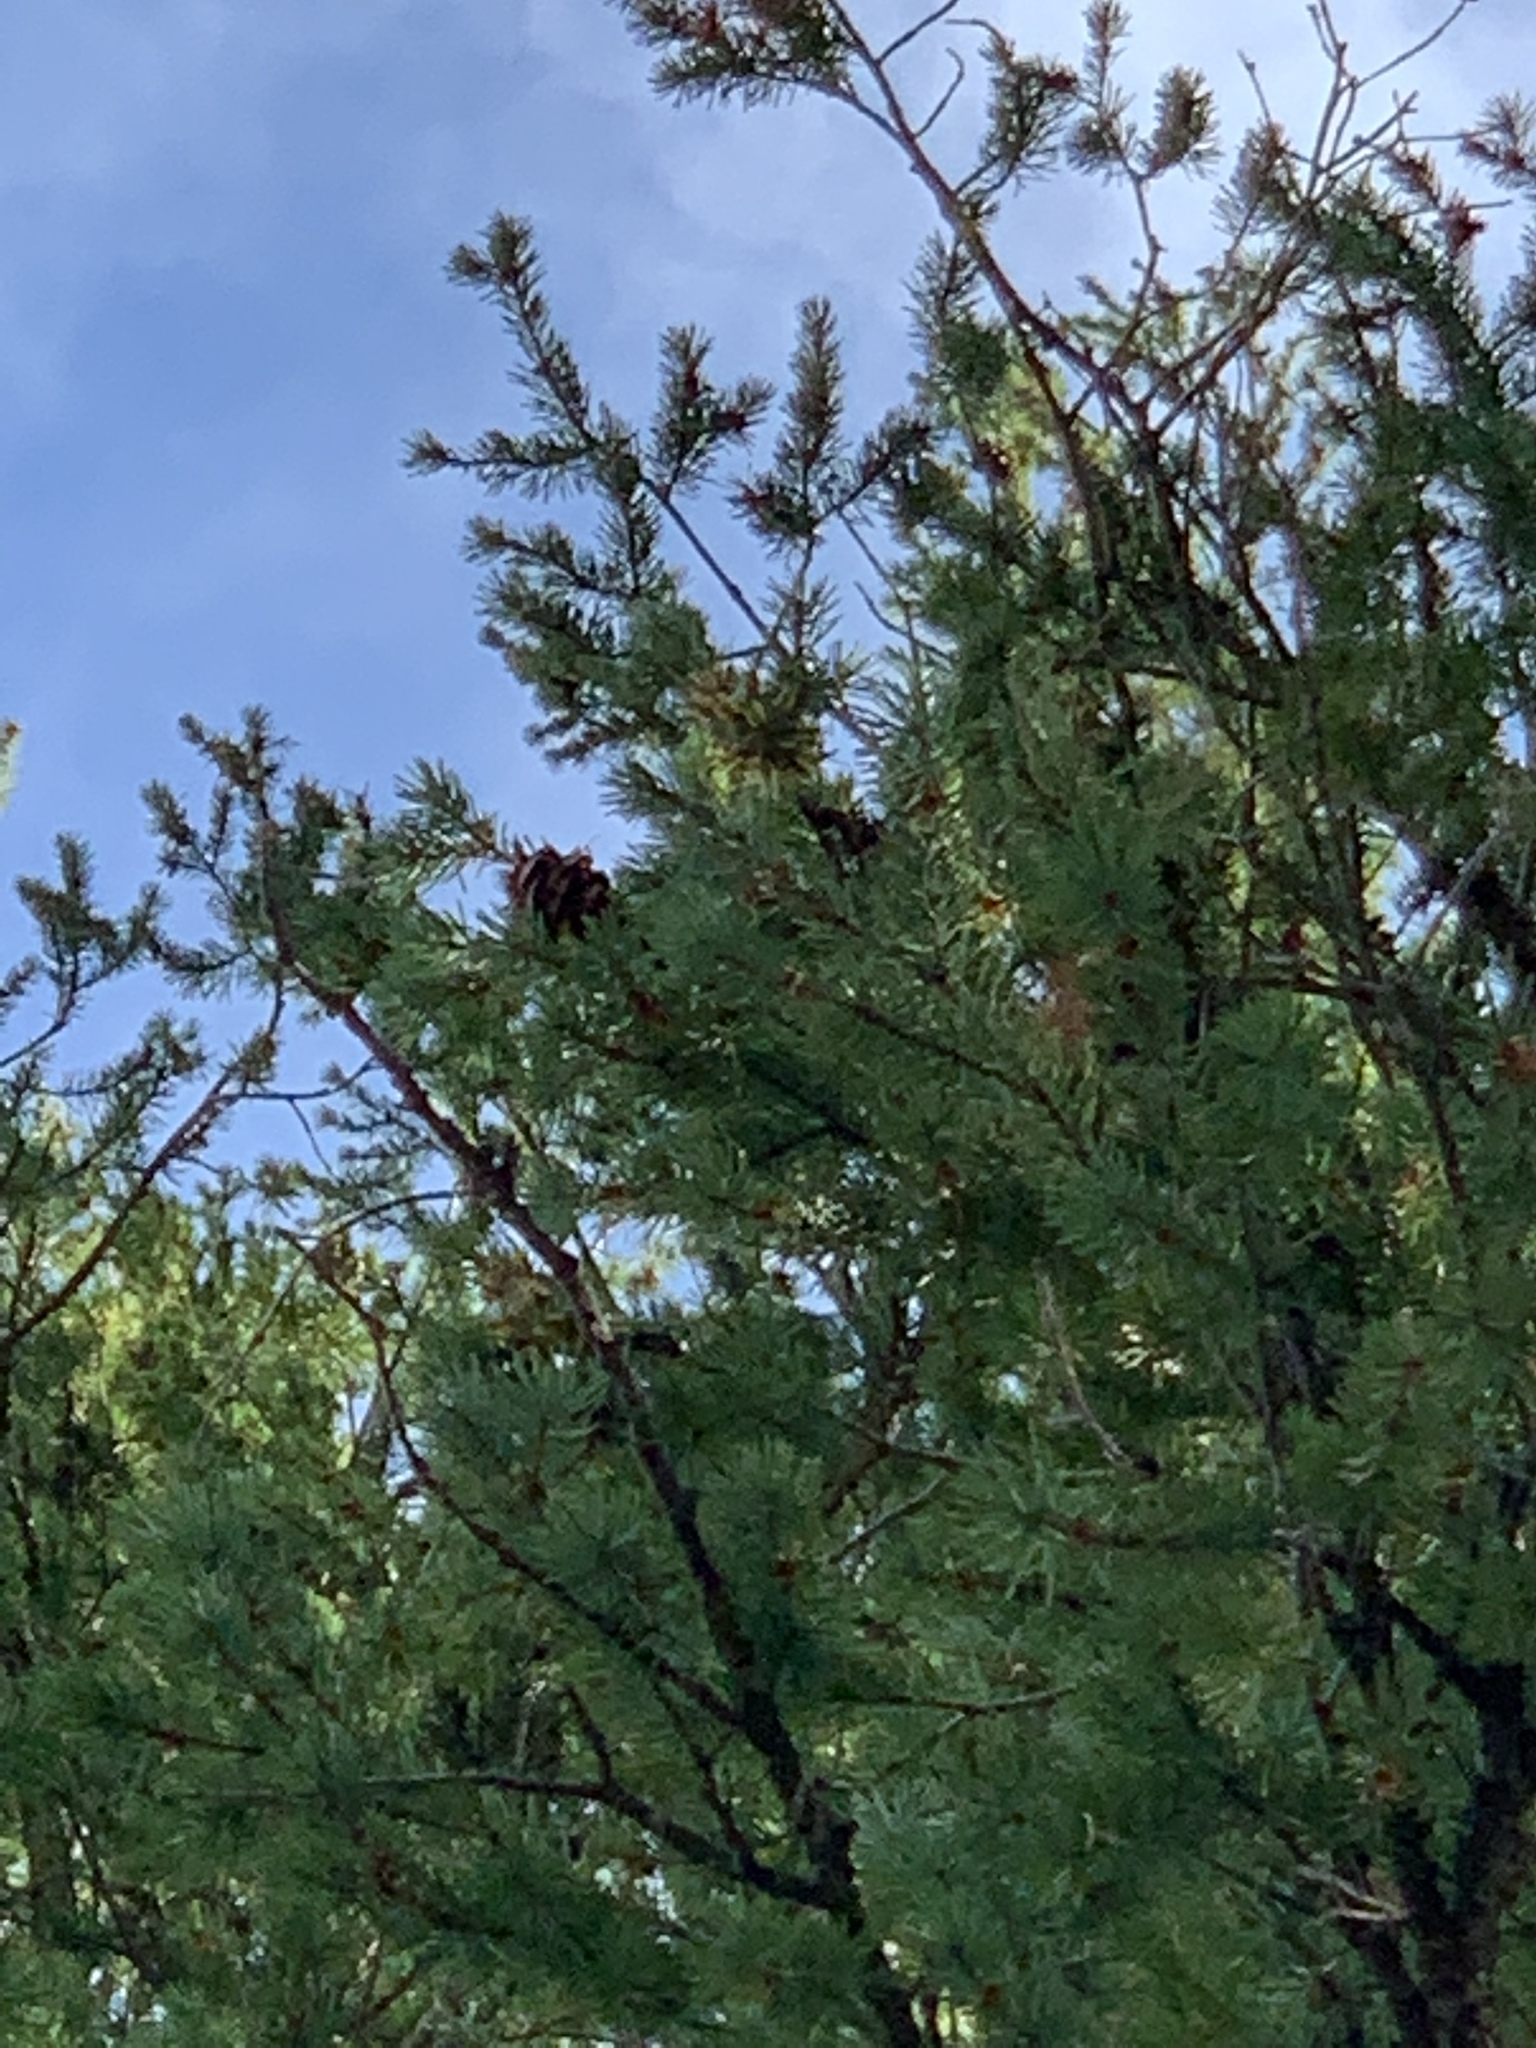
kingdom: Plantae
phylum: Tracheophyta
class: Pinopsida
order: Pinales
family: Pinaceae
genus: Pseudotsuga
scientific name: Pseudotsuga menziesii
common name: Douglas fir
